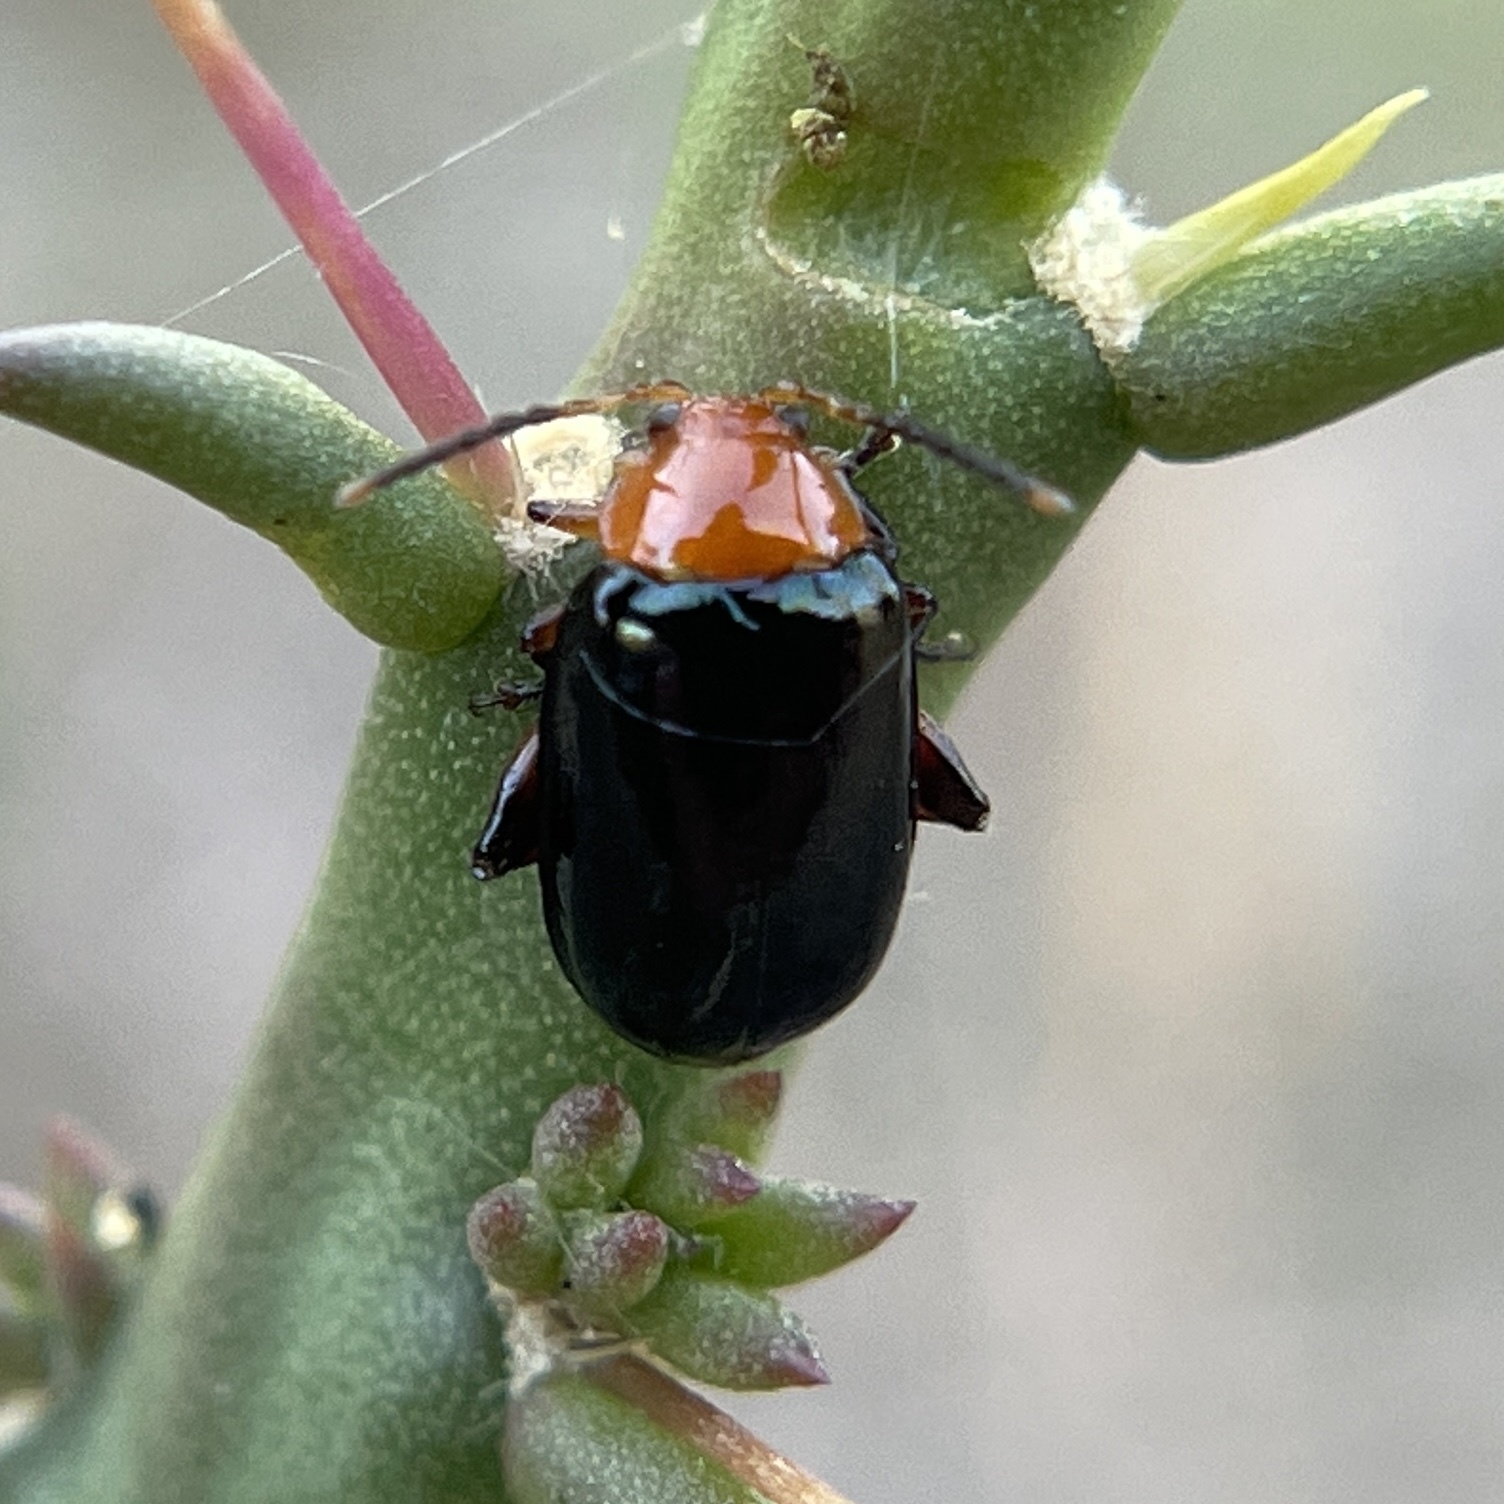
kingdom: Animalia
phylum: Arthropoda
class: Insecta
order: Coleoptera
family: Chrysomelidae
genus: Asphaera
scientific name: Asphaera lustrans
